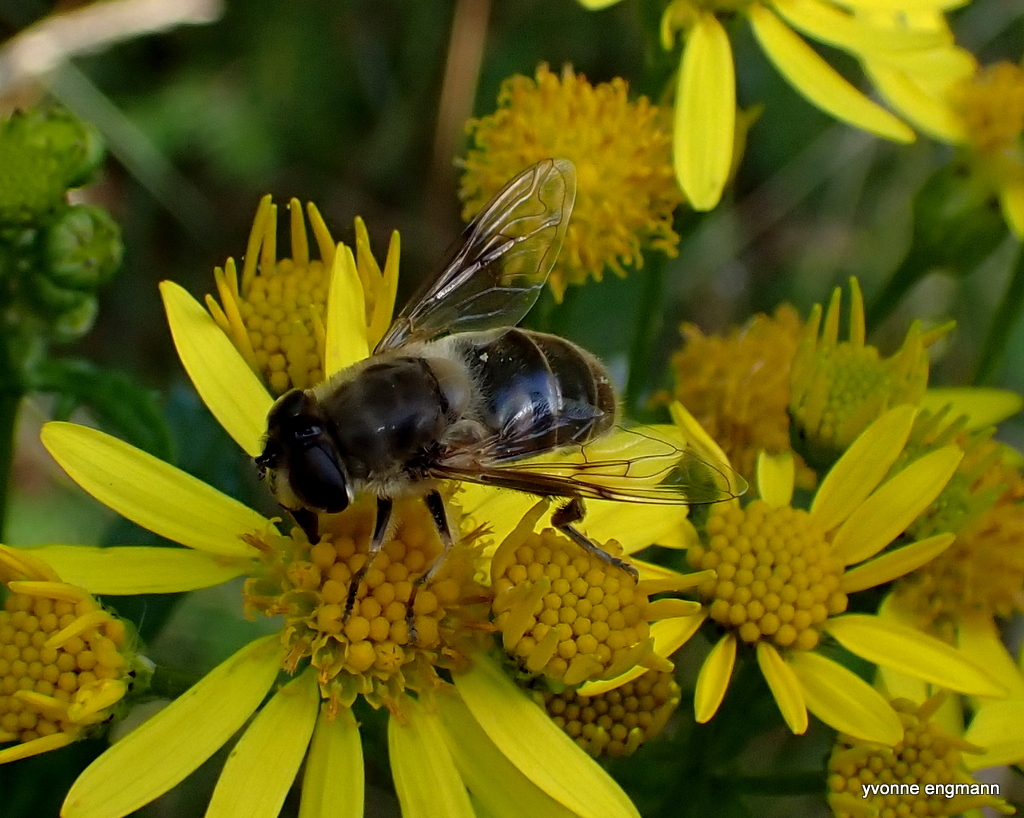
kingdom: Animalia
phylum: Arthropoda
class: Insecta
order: Diptera
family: Syrphidae
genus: Eristalis
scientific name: Eristalis tenax
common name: Drone fly
